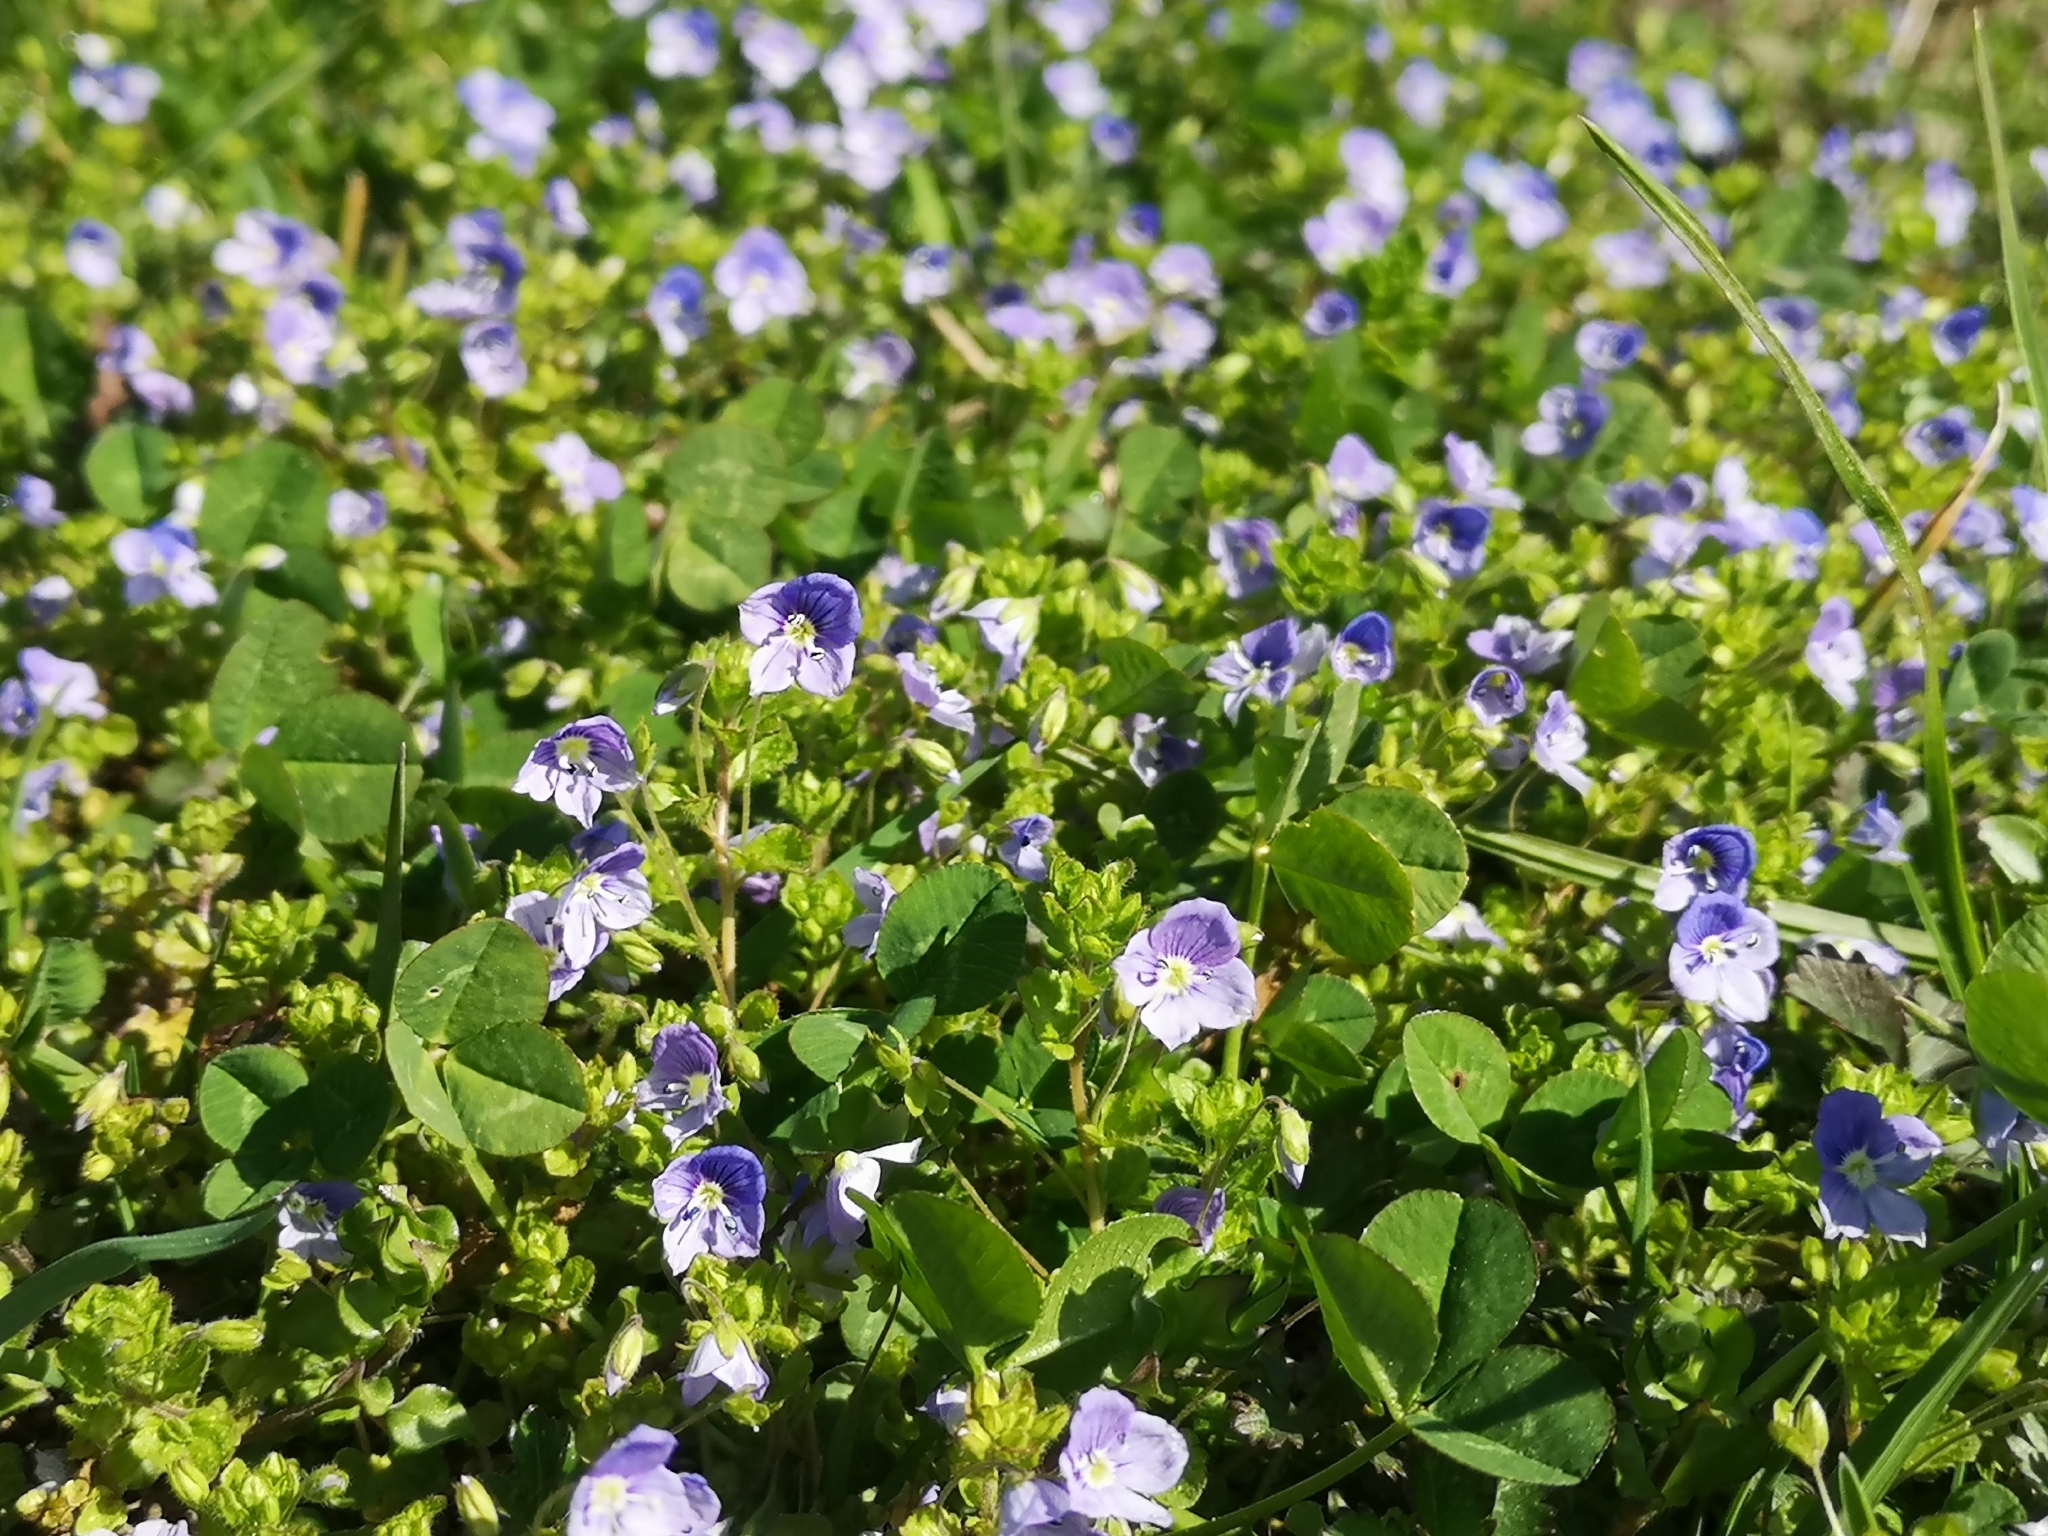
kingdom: Plantae
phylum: Tracheophyta
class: Magnoliopsida
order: Lamiales
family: Plantaginaceae
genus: Veronica
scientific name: Veronica filiformis
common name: Slender speedwell
